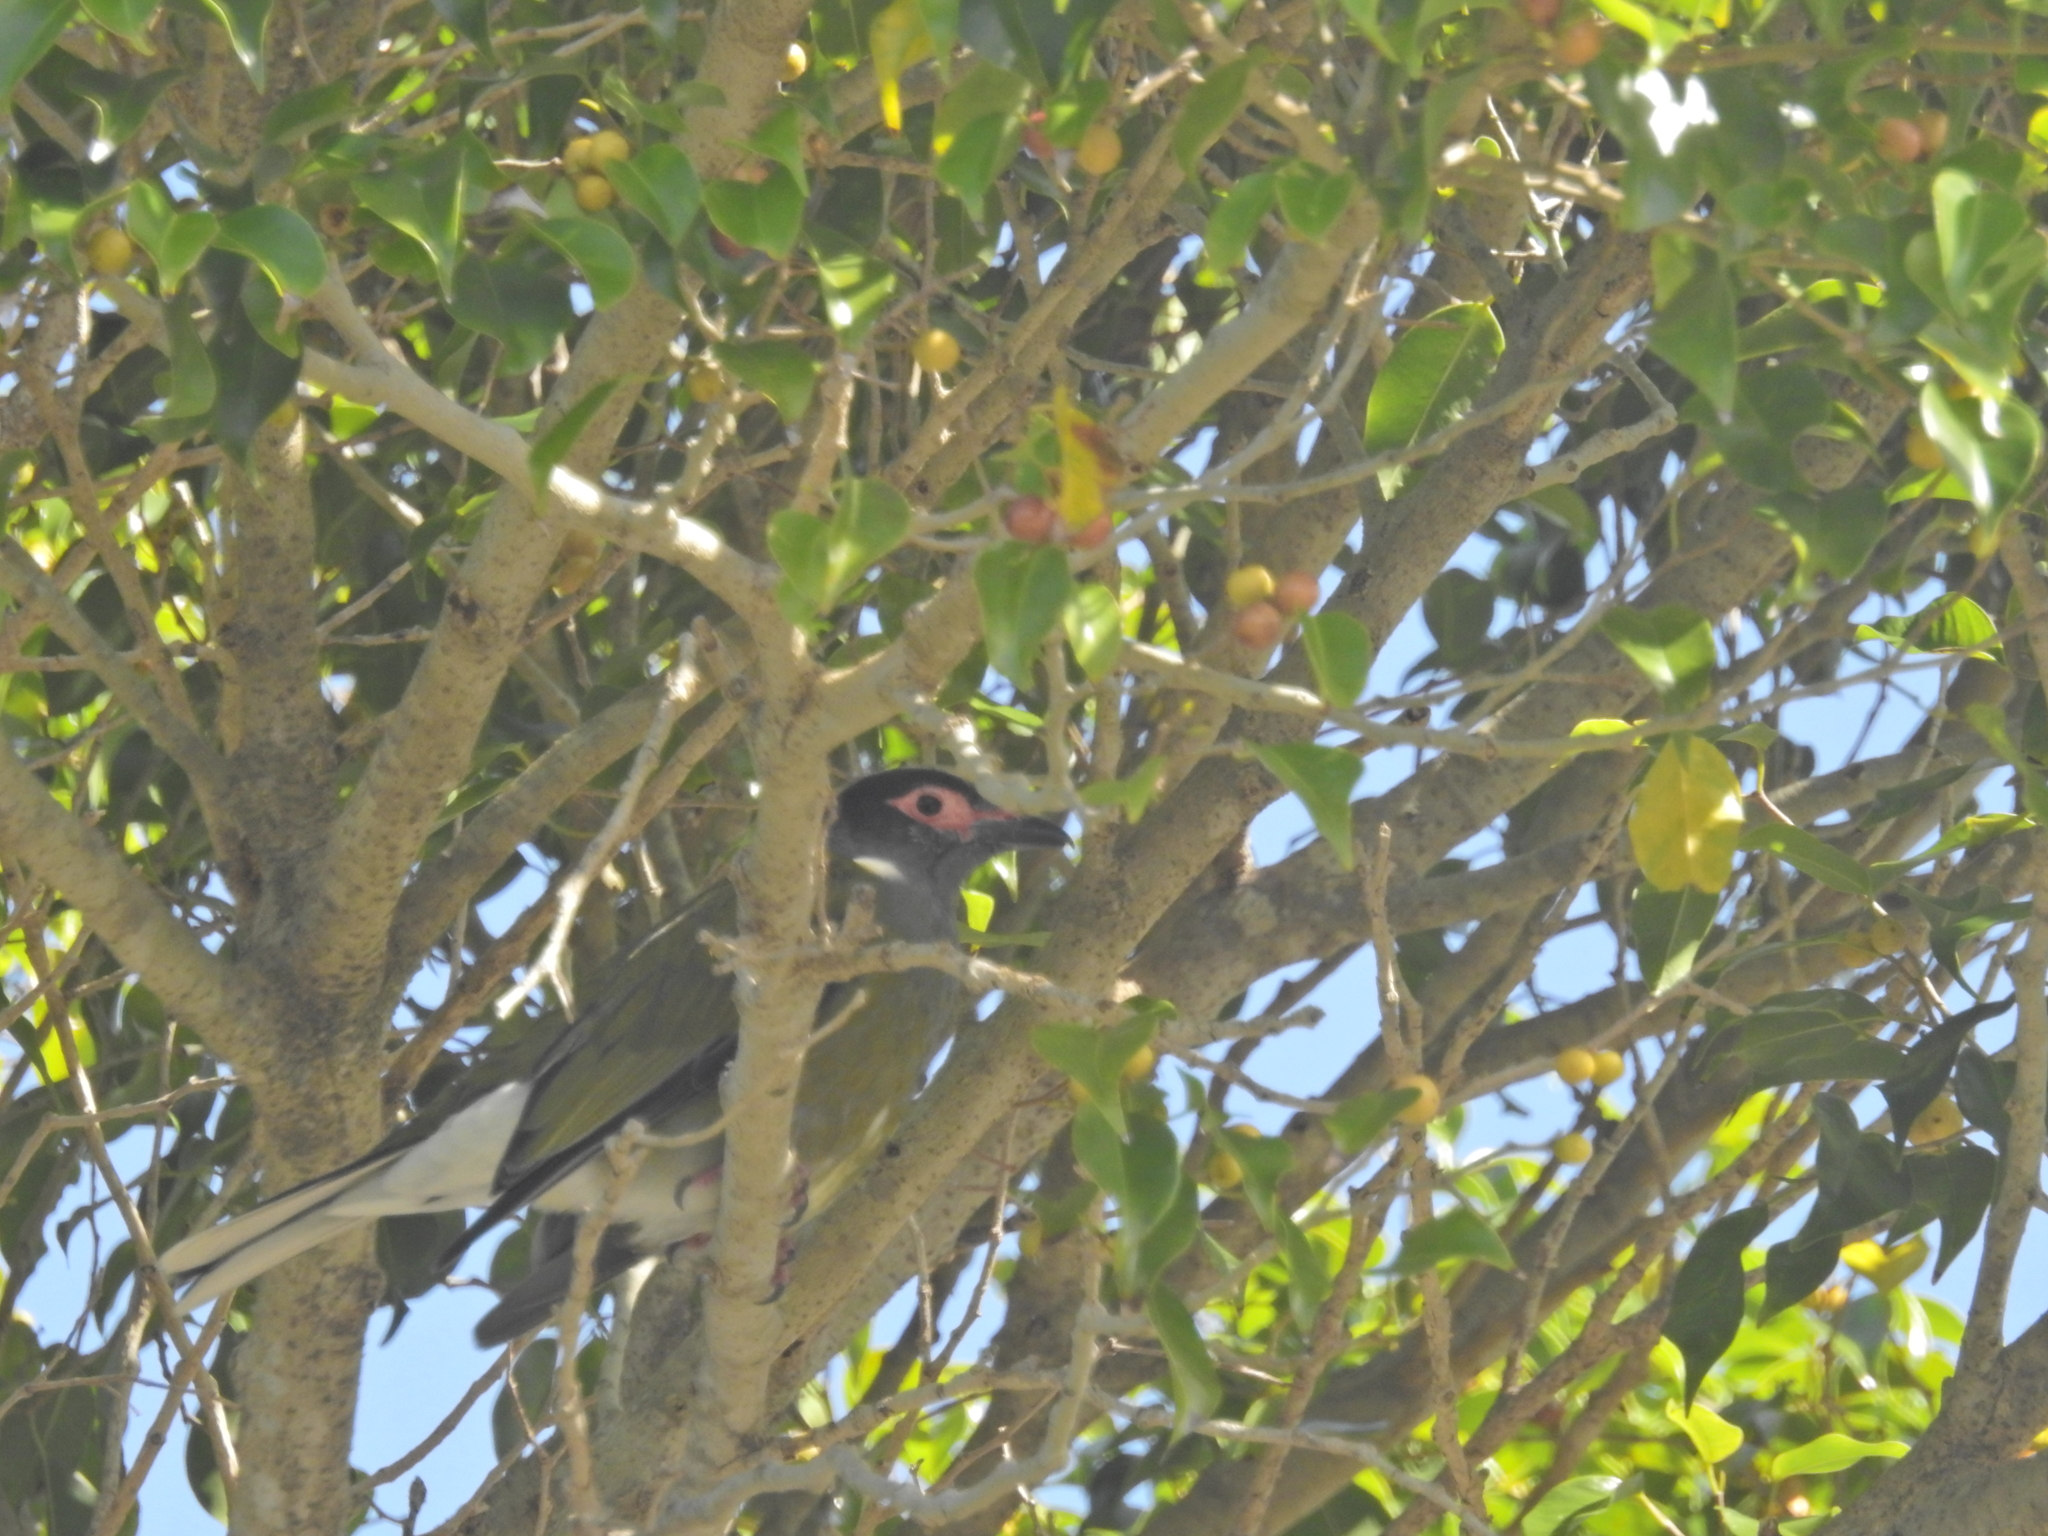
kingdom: Animalia
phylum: Chordata
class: Aves
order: Passeriformes
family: Oriolidae
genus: Sphecotheres
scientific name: Sphecotheres vieilloti
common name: Australasian figbird
